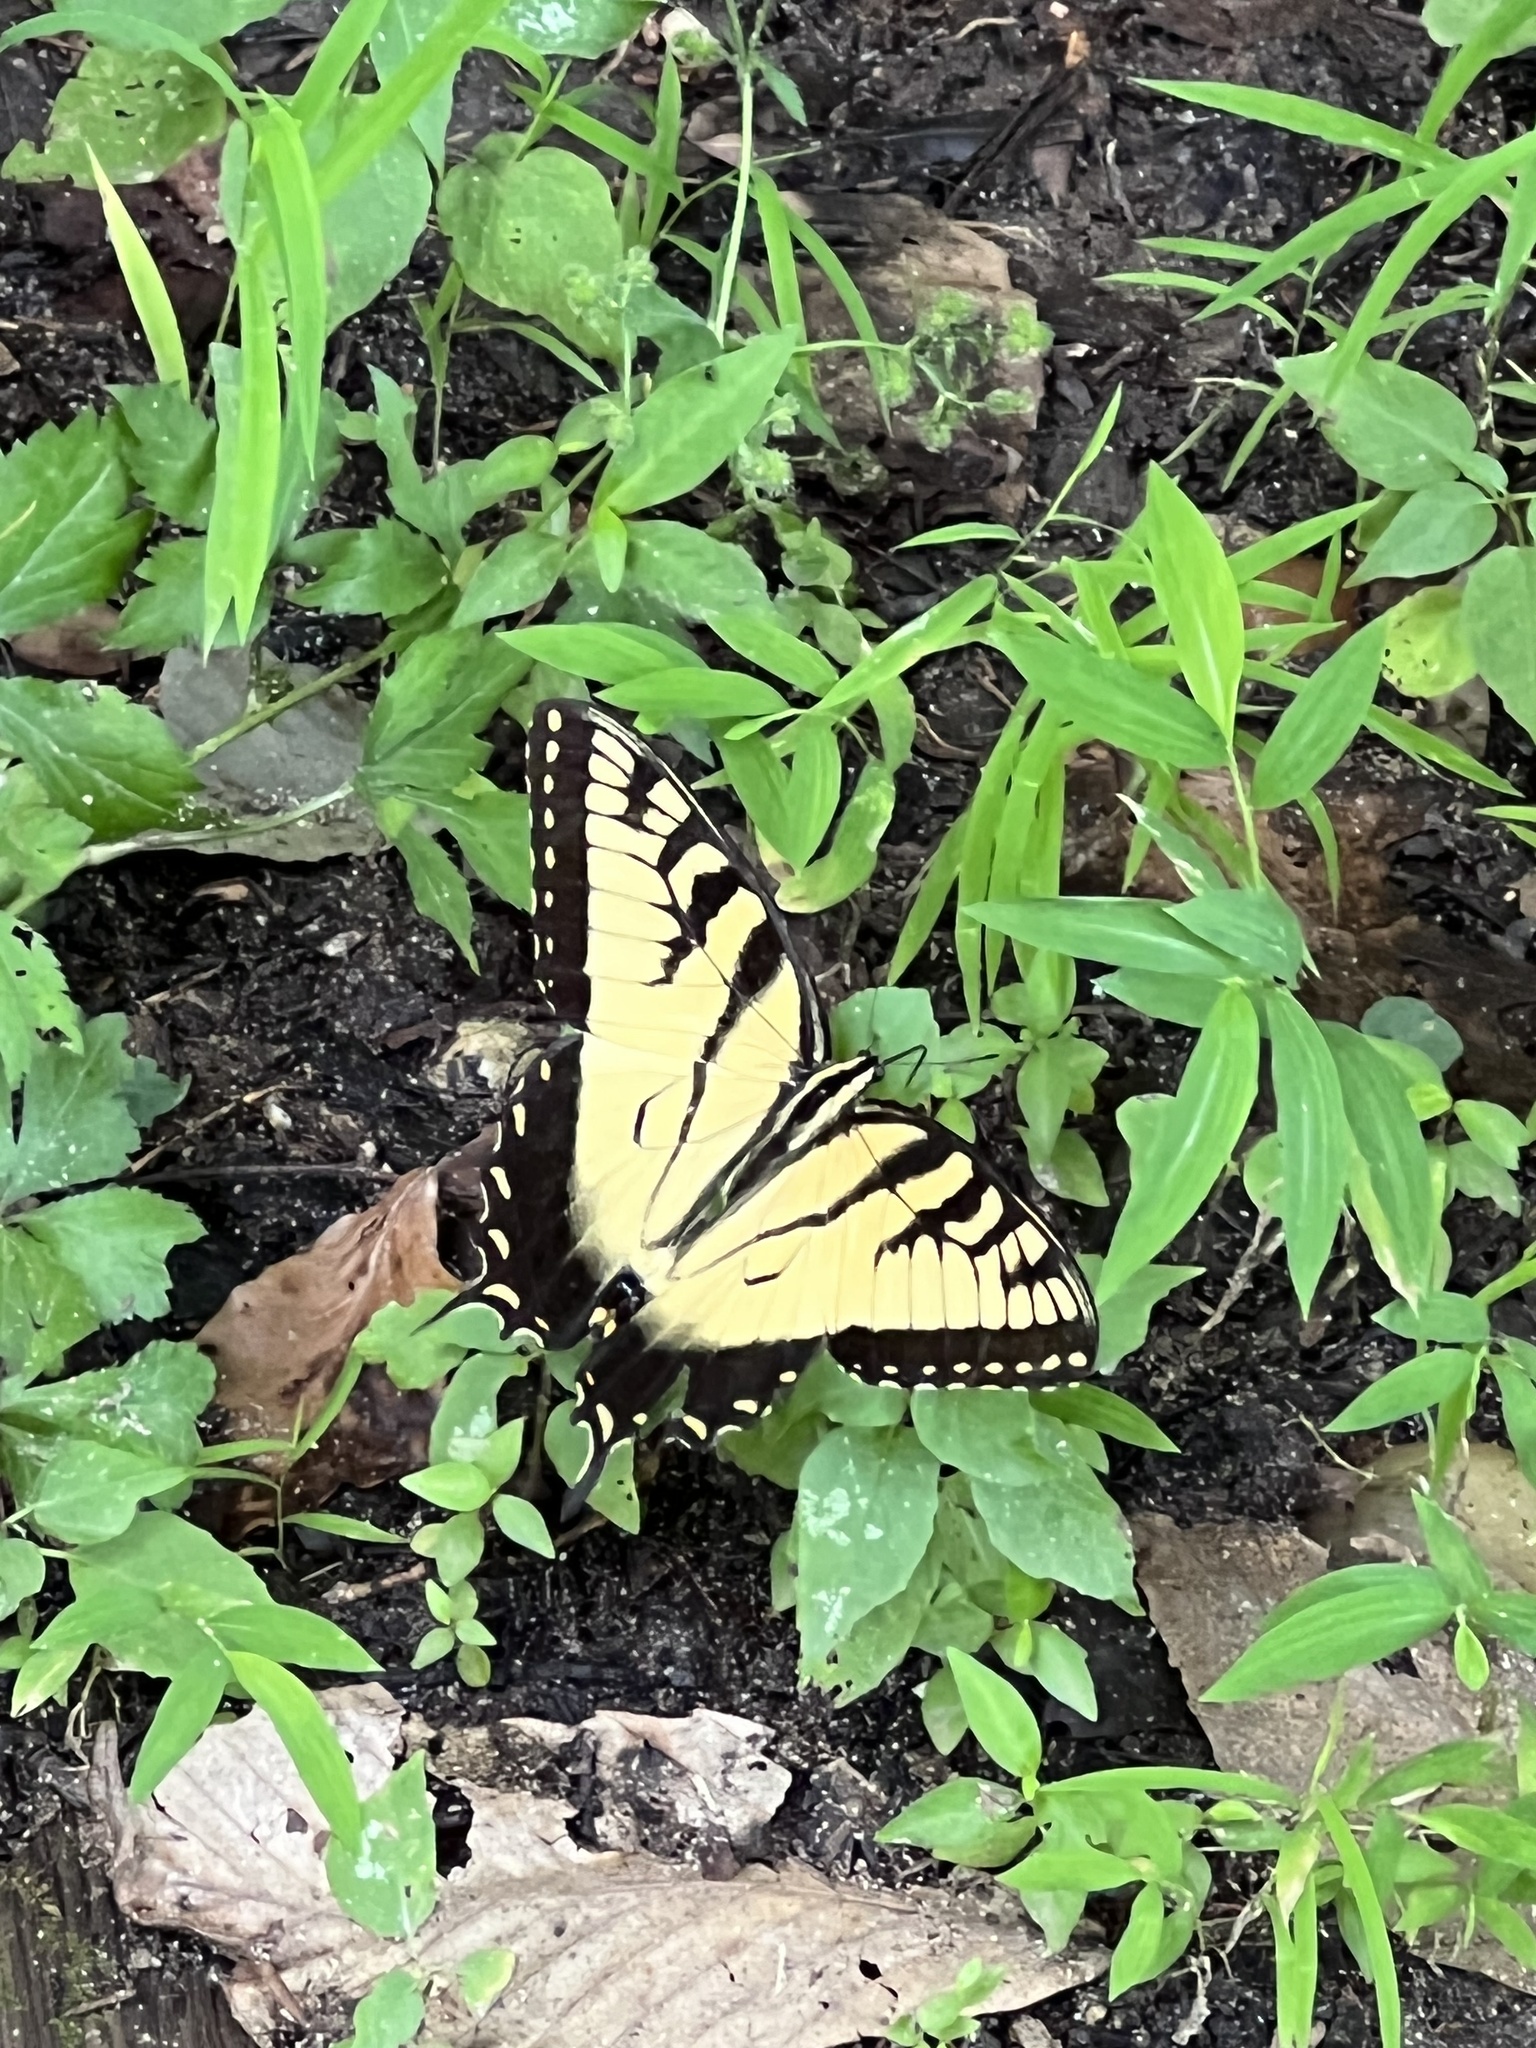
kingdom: Animalia
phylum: Arthropoda
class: Insecta
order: Lepidoptera
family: Papilionidae
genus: Papilio
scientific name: Papilio glaucus
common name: Tiger swallowtail
